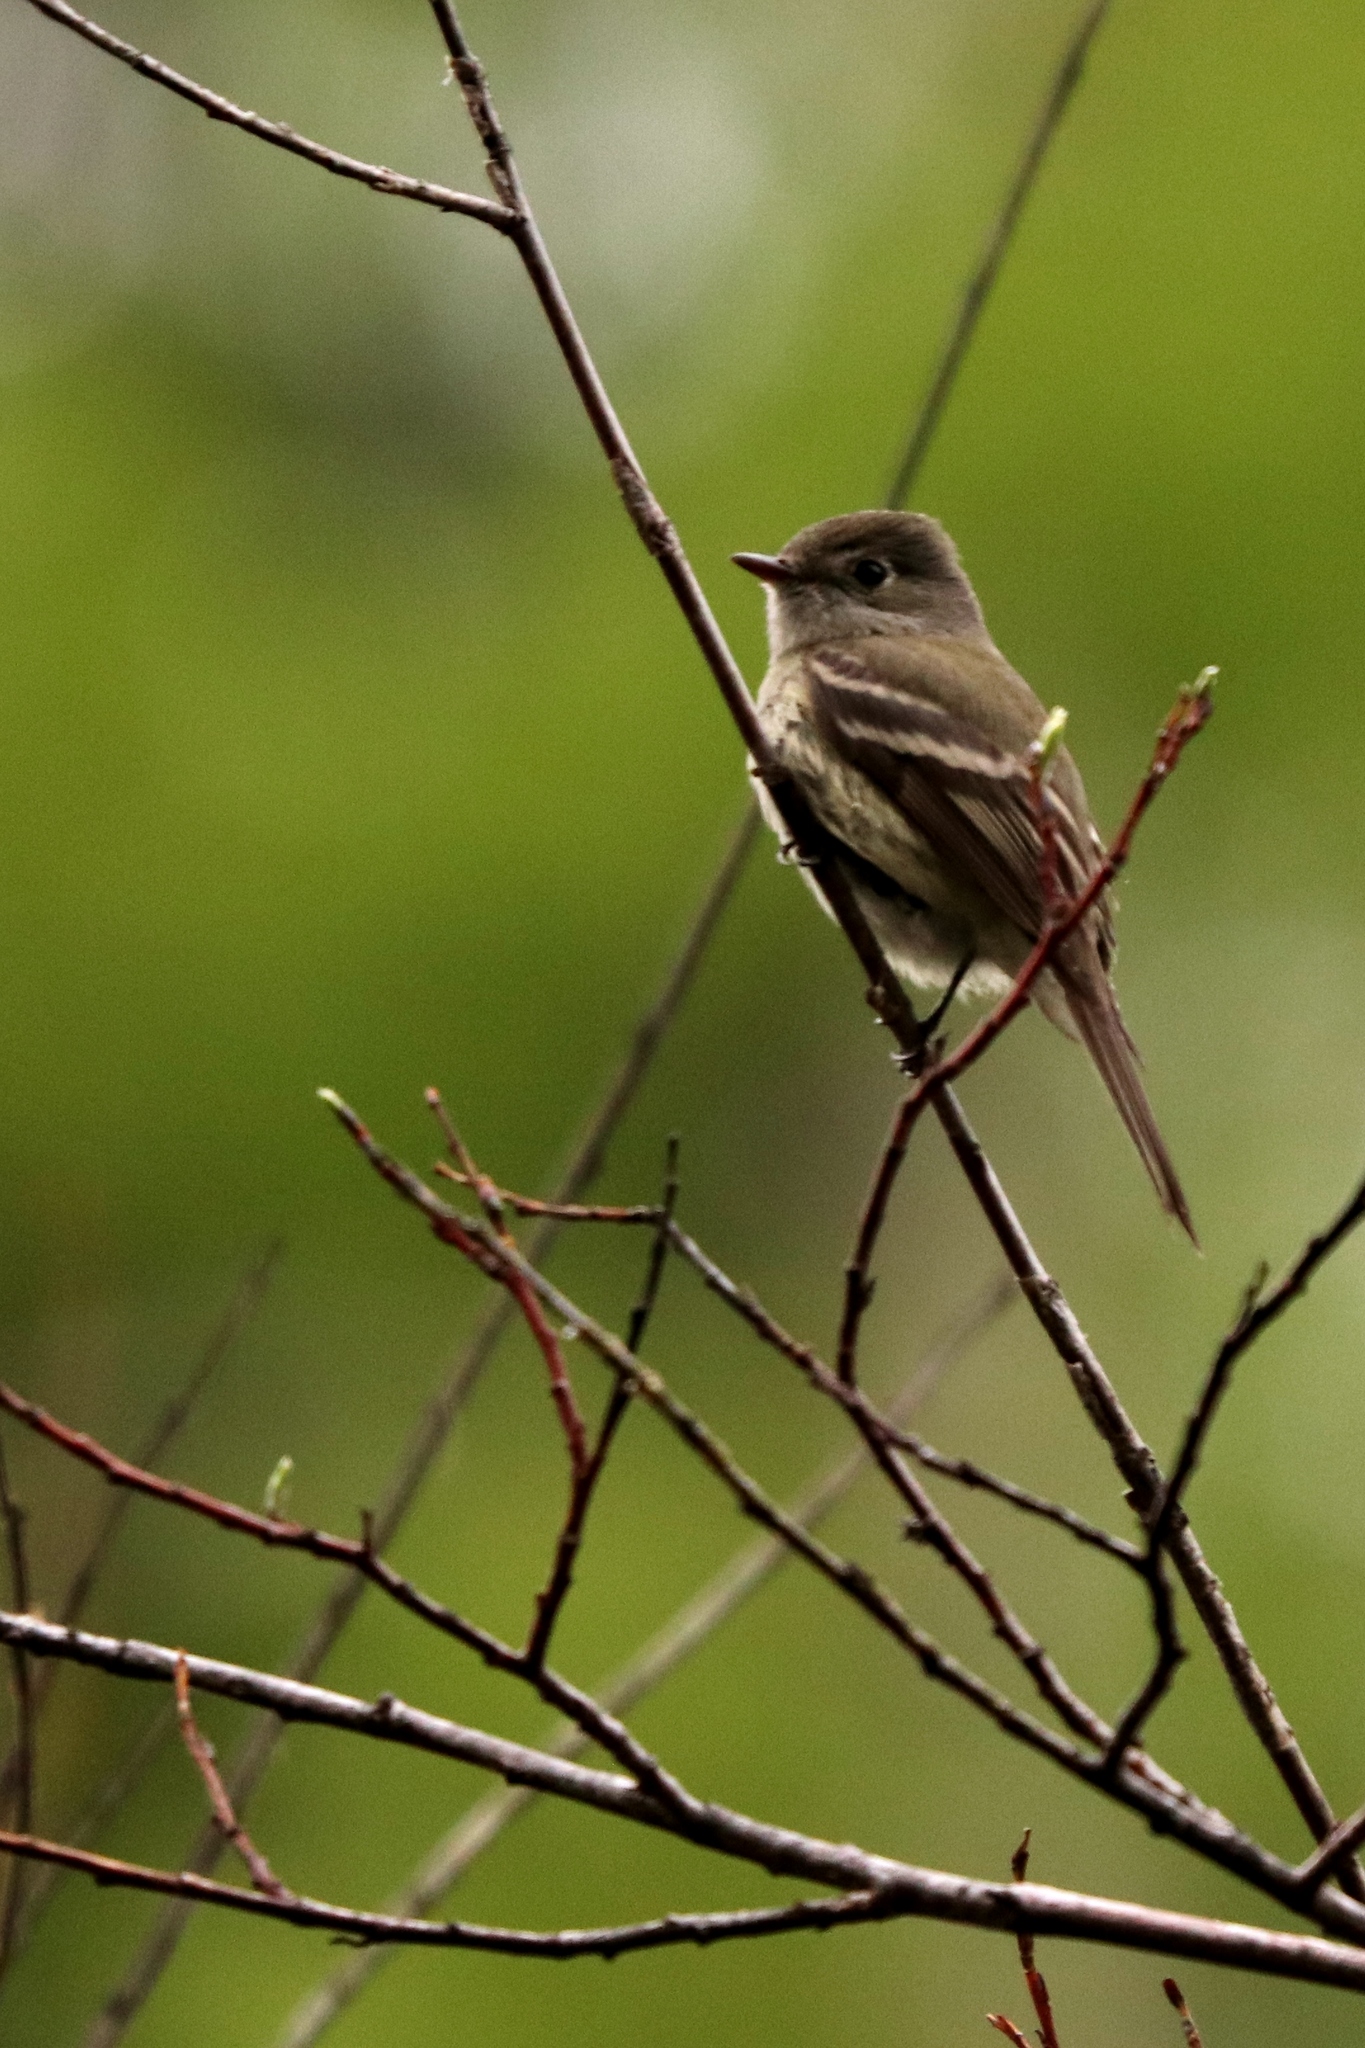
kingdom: Animalia
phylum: Chordata
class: Aves
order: Passeriformes
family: Tyrannidae
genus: Empidonax
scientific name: Empidonax oberholseri
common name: Dusky flycatcher
